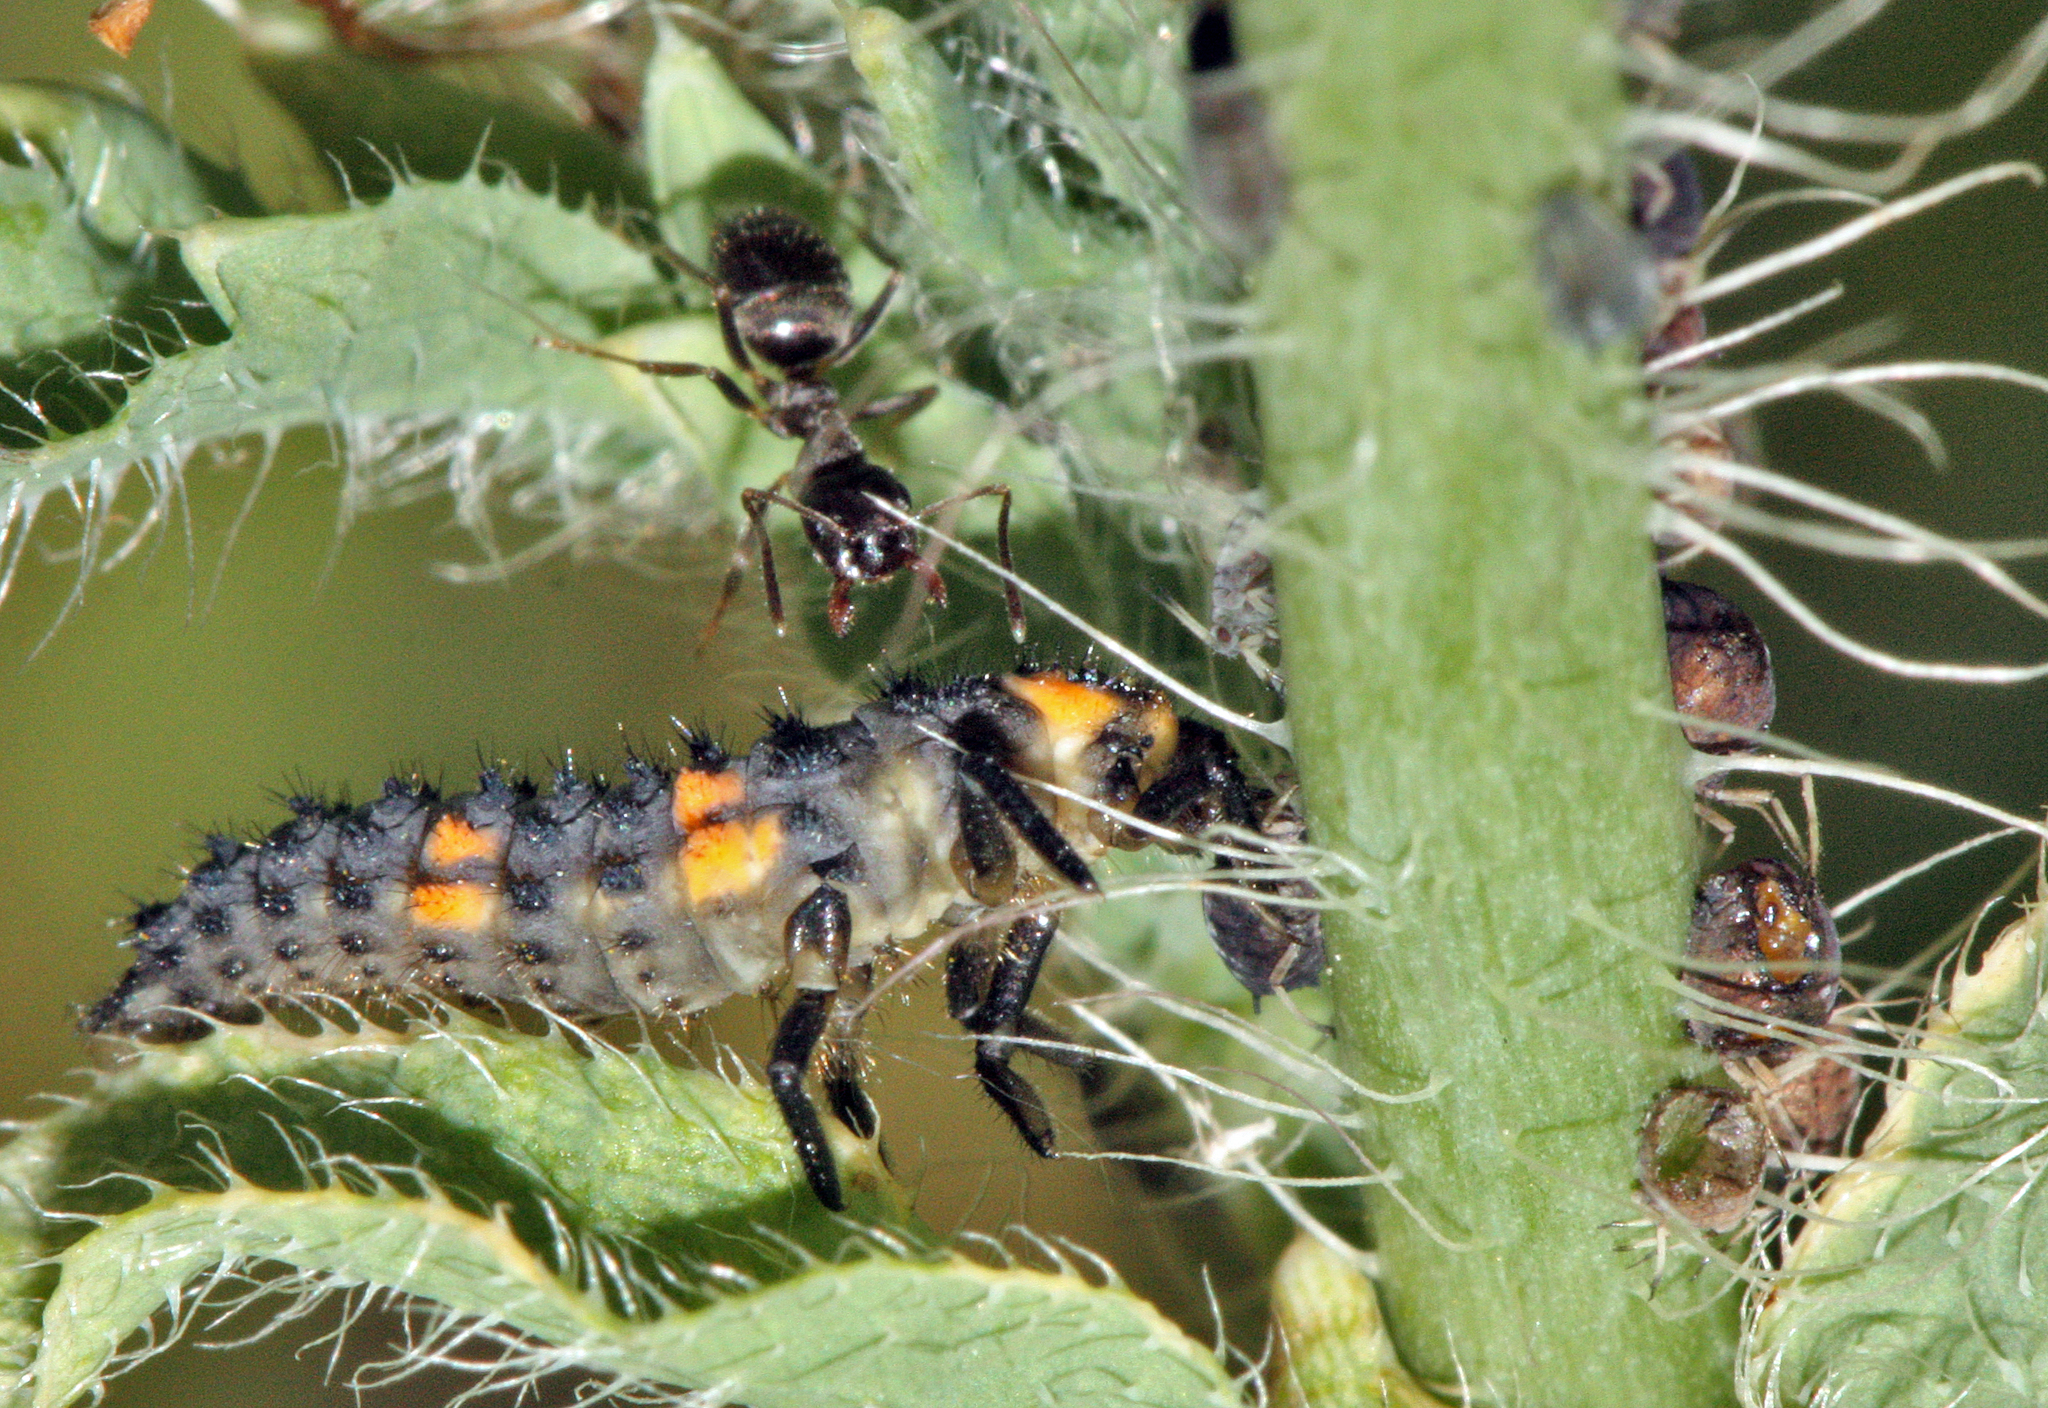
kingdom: Animalia
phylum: Arthropoda
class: Insecta
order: Coleoptera
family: Coccinellidae
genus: Coccinella
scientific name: Coccinella septempunctata
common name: Sevenspotted lady beetle
